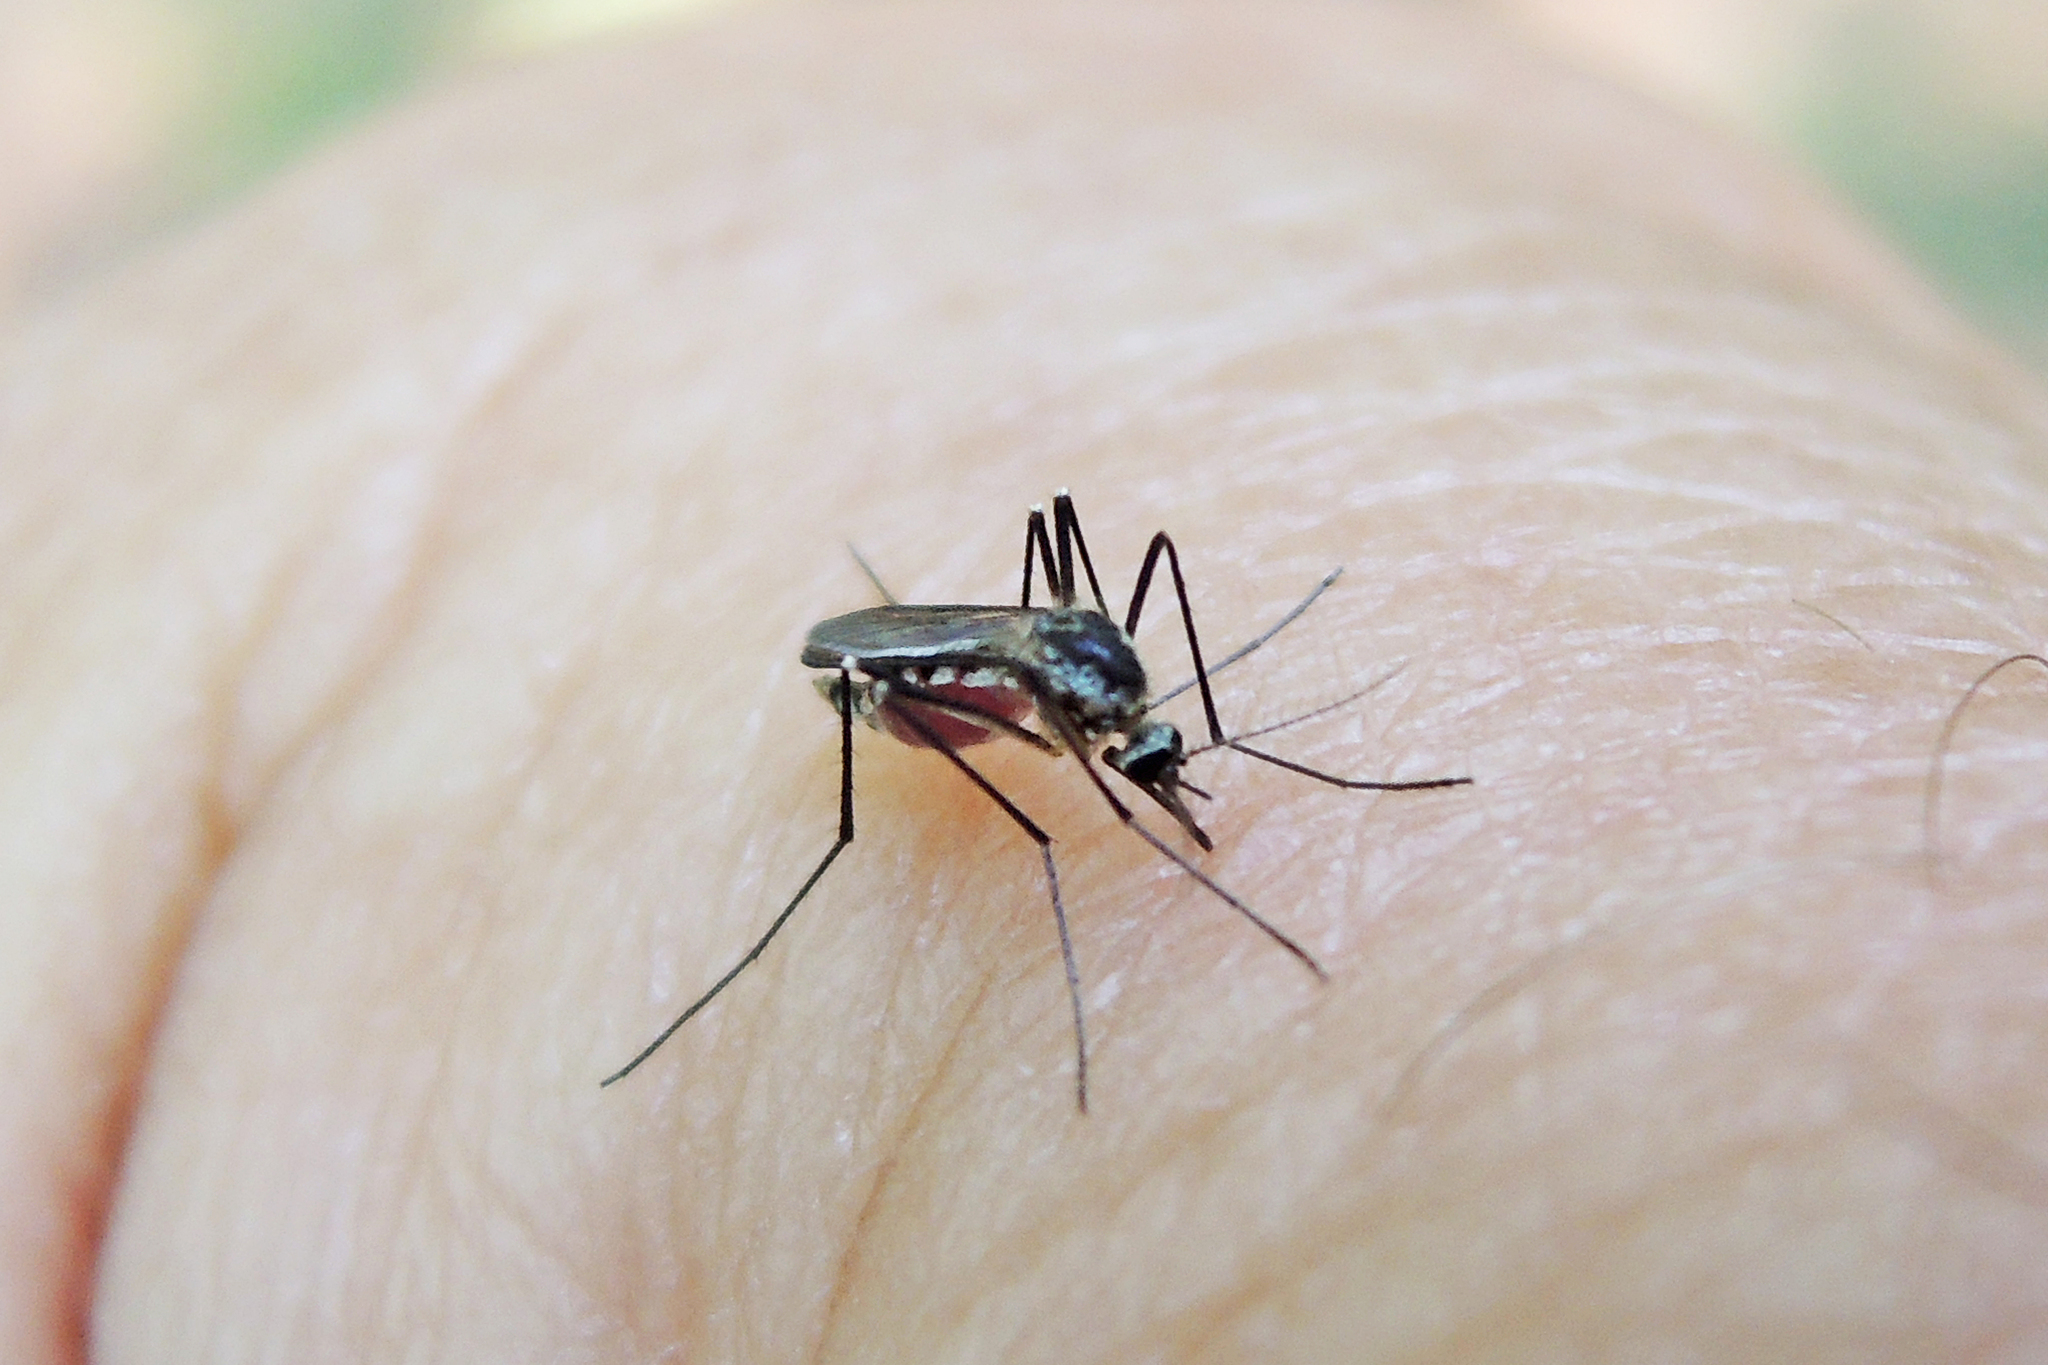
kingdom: Animalia
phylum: Arthropoda
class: Insecta
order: Diptera
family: Culicidae
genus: Aedes
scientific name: Aedes triseriatus
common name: Eastern treehole mosquito
